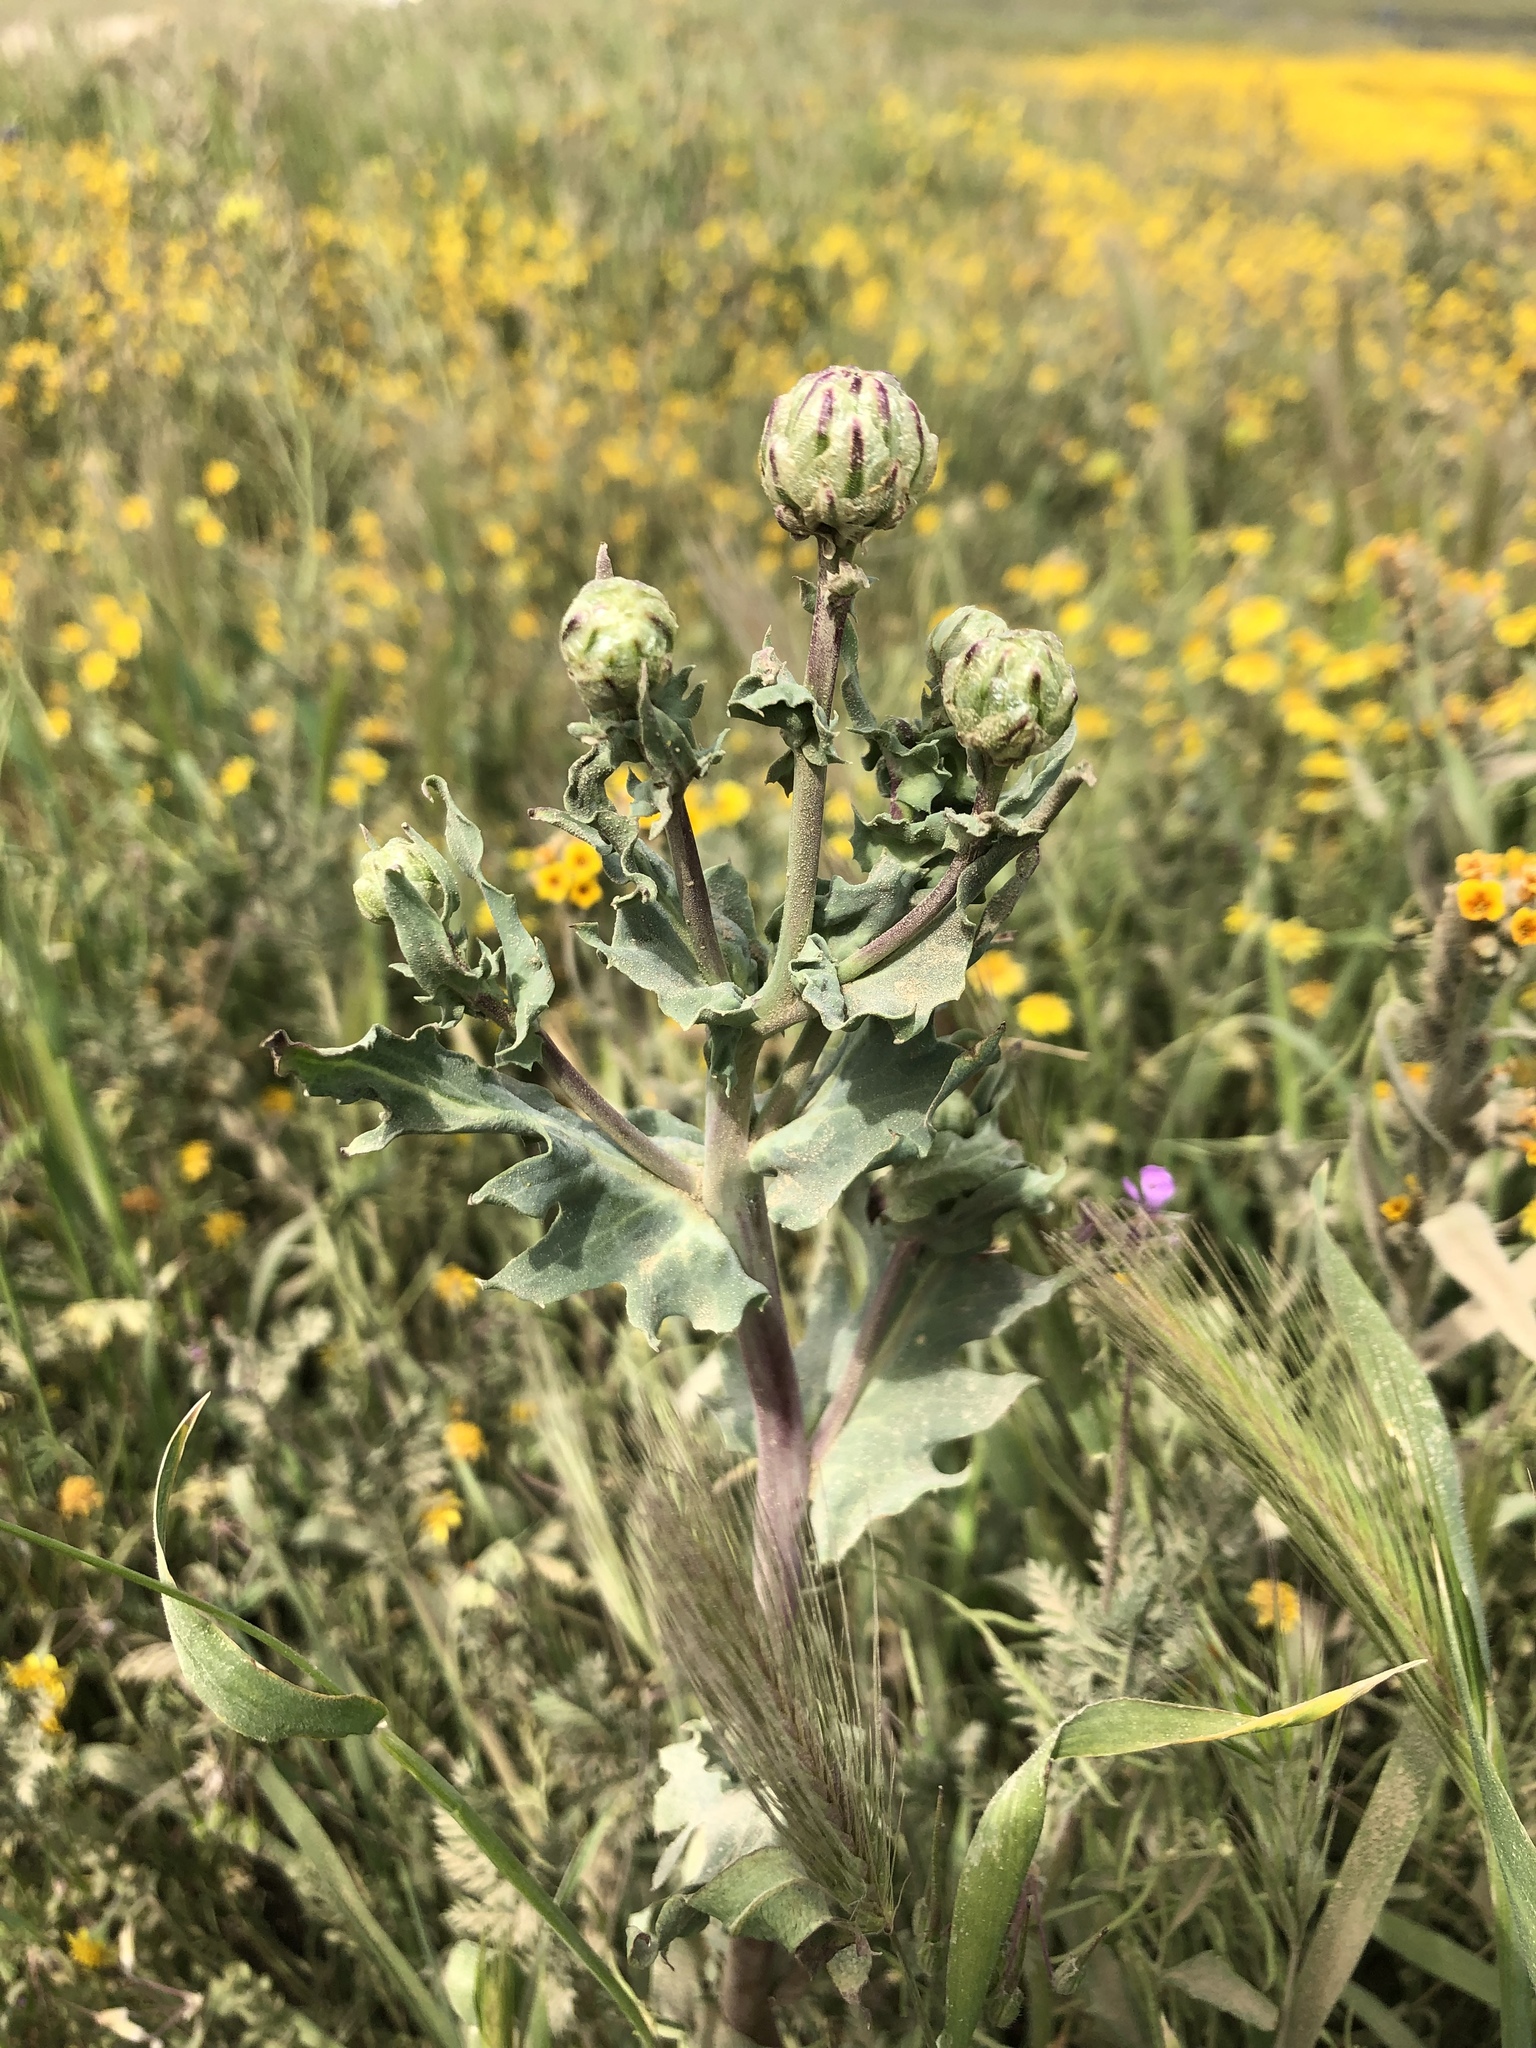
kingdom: Plantae
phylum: Tracheophyta
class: Magnoliopsida
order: Asterales
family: Asteraceae
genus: Malacothrix
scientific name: Malacothrix coulteri
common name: Snake's-head
